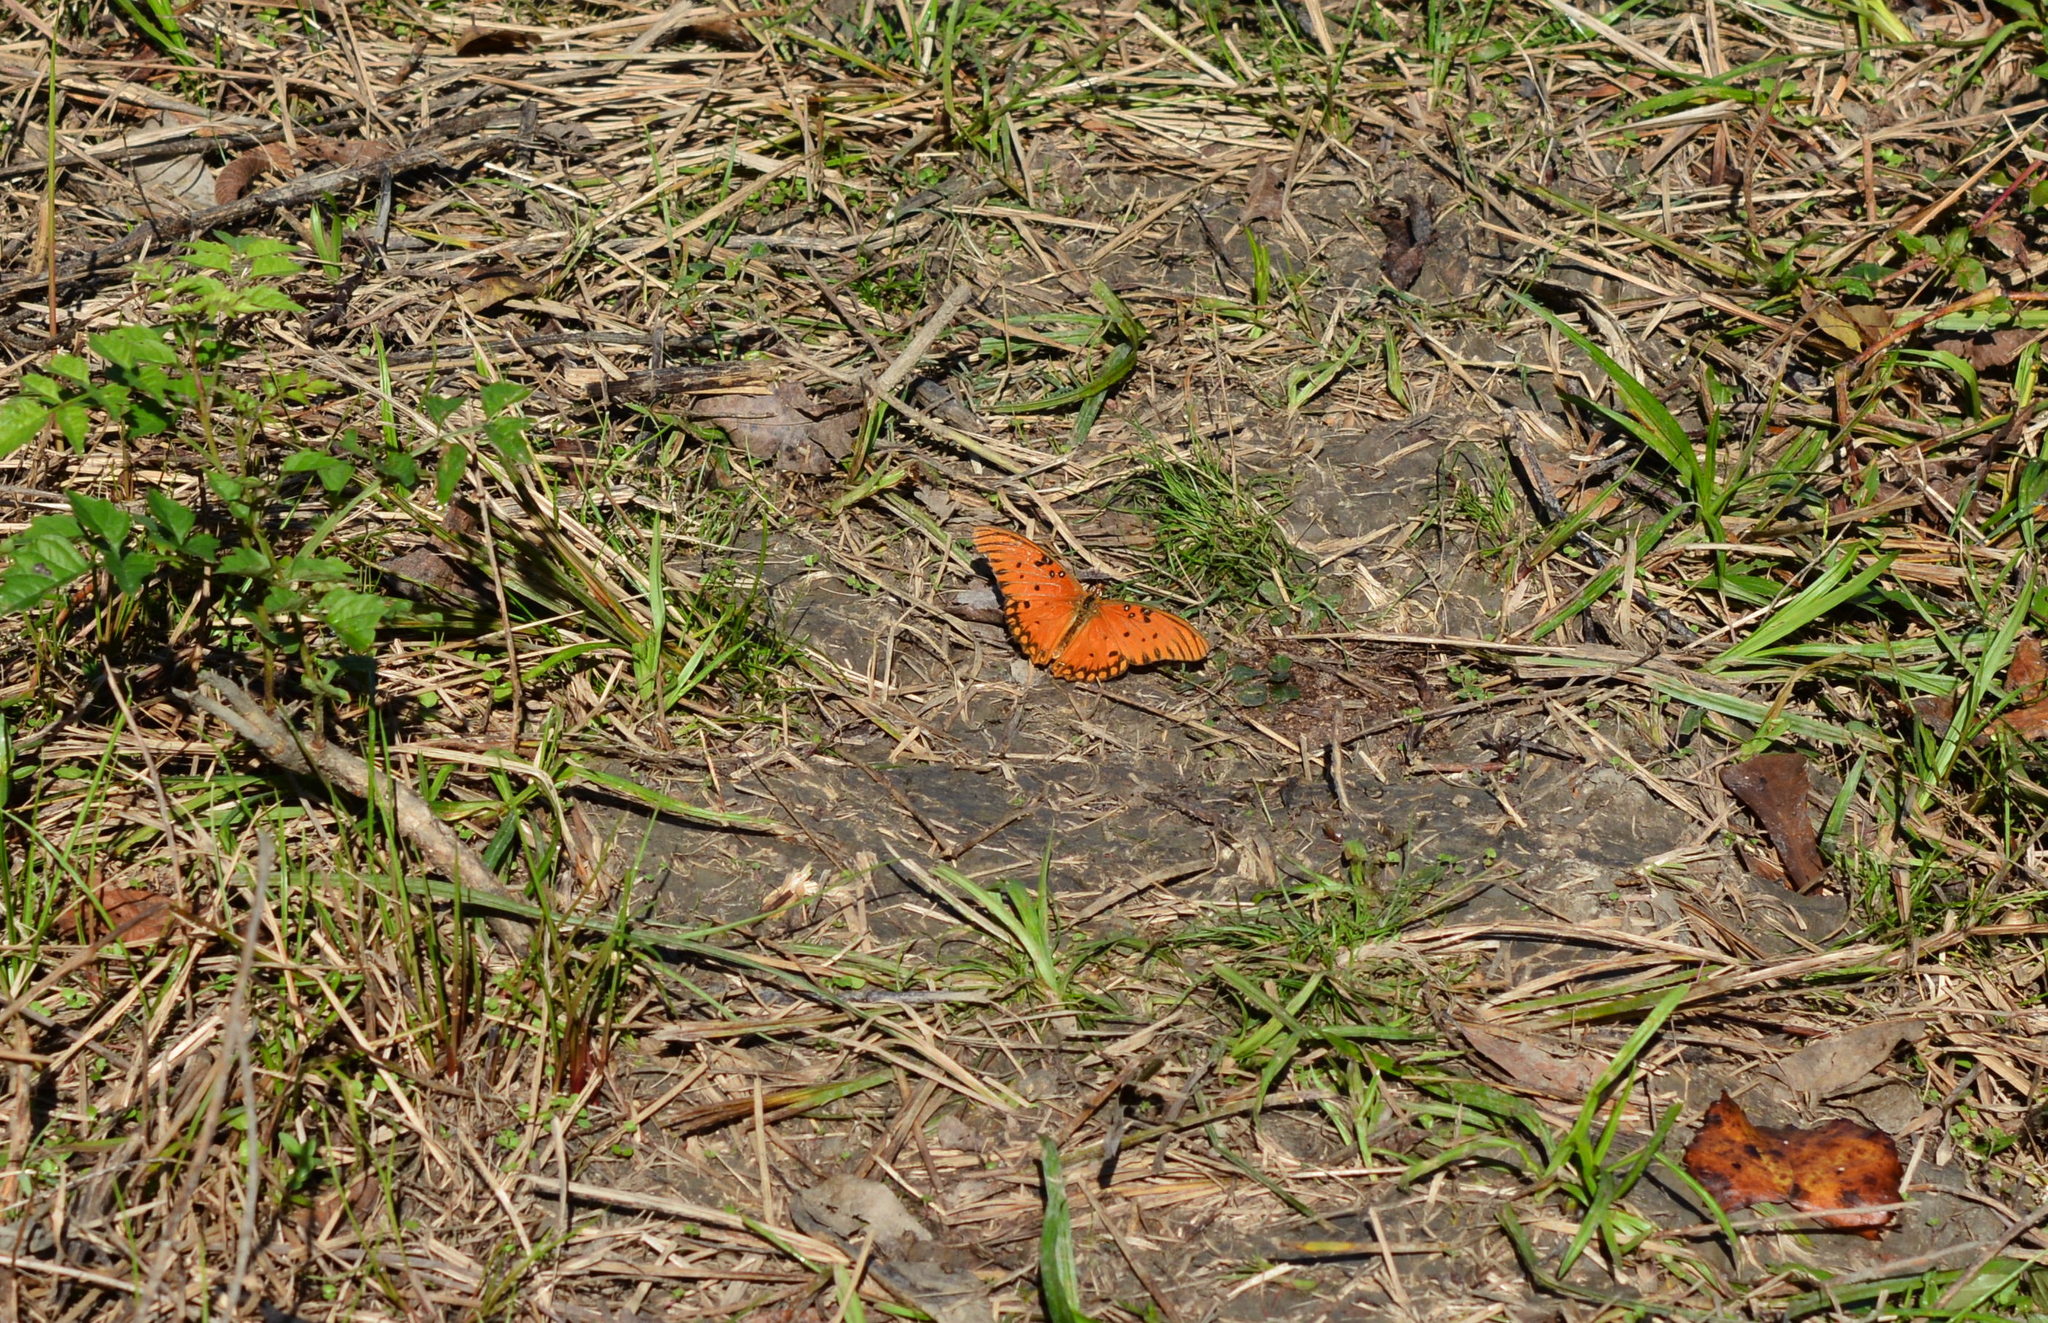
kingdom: Animalia
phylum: Arthropoda
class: Insecta
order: Lepidoptera
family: Nymphalidae
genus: Dione
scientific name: Dione vanillae
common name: Gulf fritillary
